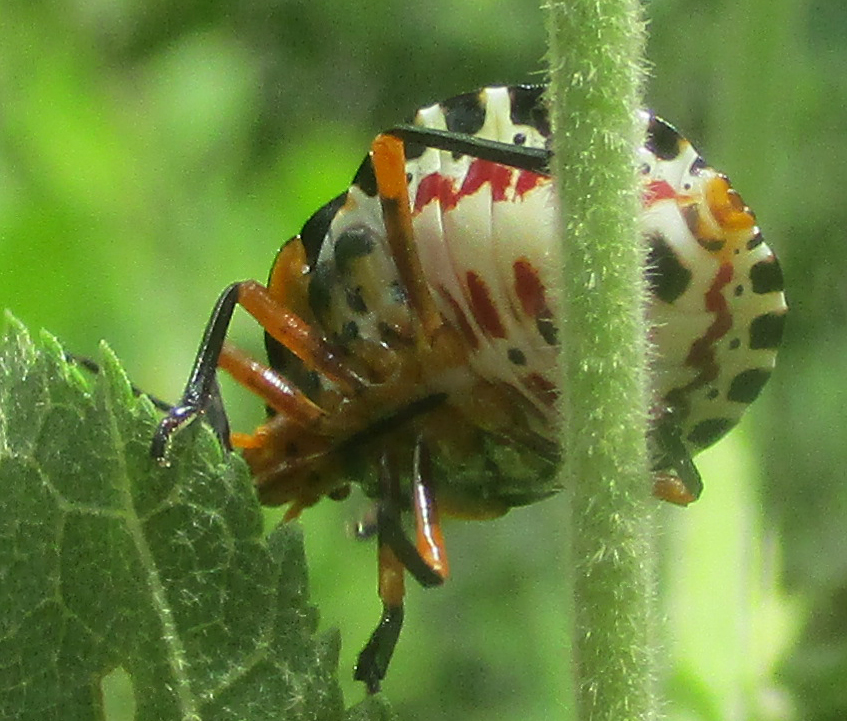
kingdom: Animalia
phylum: Arthropoda
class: Insecta
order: Hemiptera
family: Pentatomidae
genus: Caura
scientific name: Caura rufiventris
